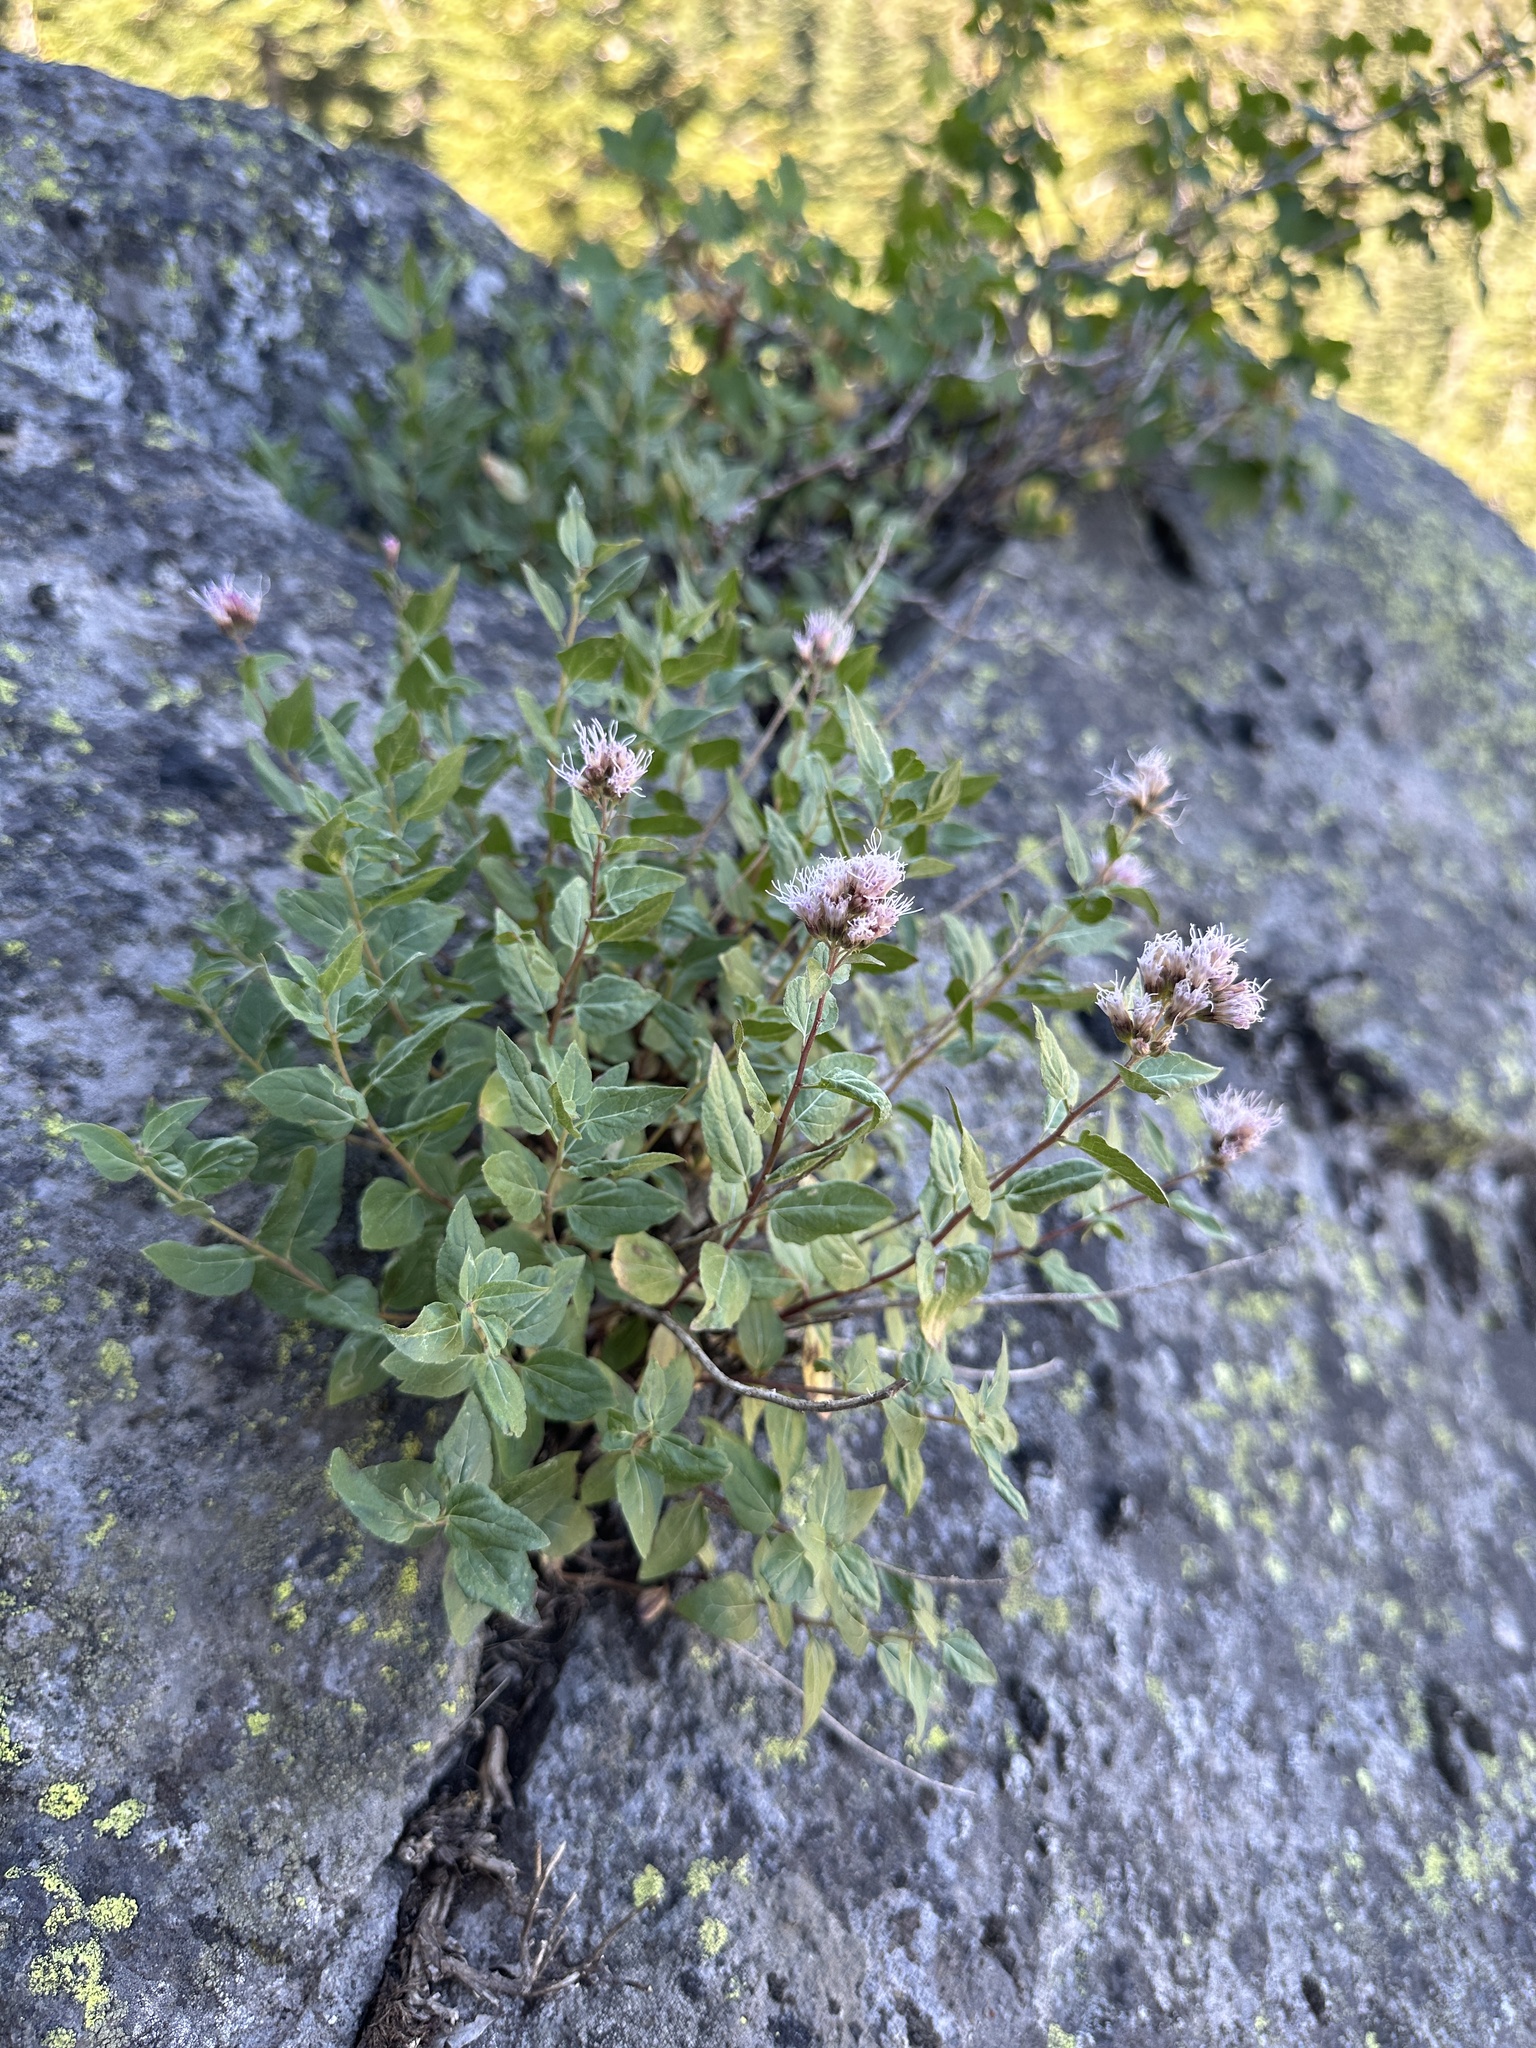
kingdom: Plantae
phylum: Tracheophyta
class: Magnoliopsida
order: Asterales
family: Asteraceae
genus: Ageratina
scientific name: Ageratina occidentalis
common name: Western snakeroot
